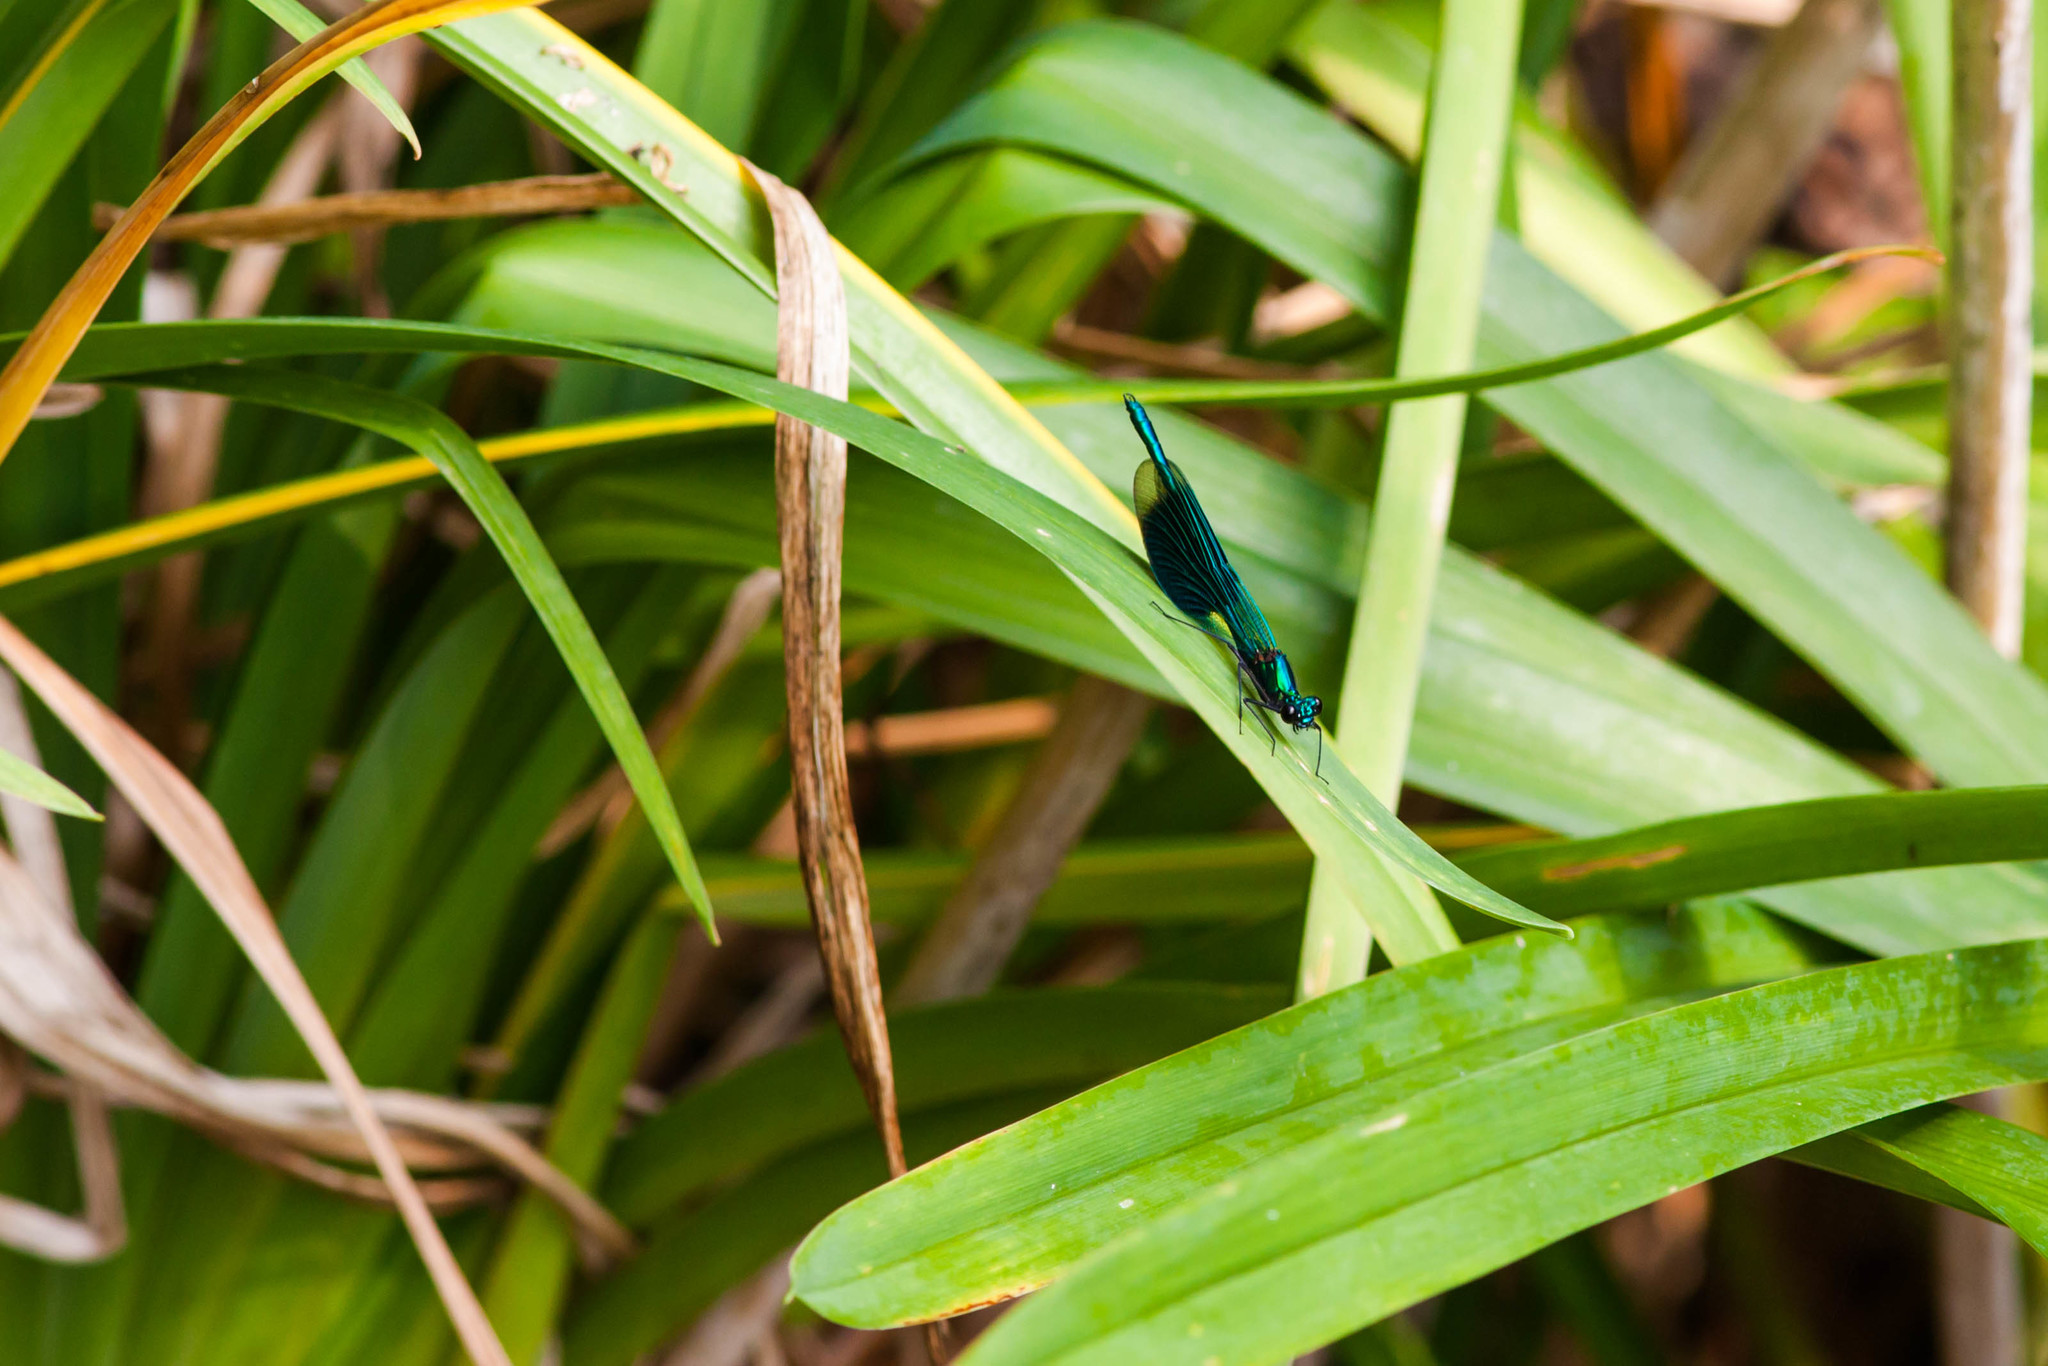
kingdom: Animalia
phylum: Arthropoda
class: Insecta
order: Odonata
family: Calopterygidae
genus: Calopteryx
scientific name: Calopteryx splendens
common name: Banded demoiselle
